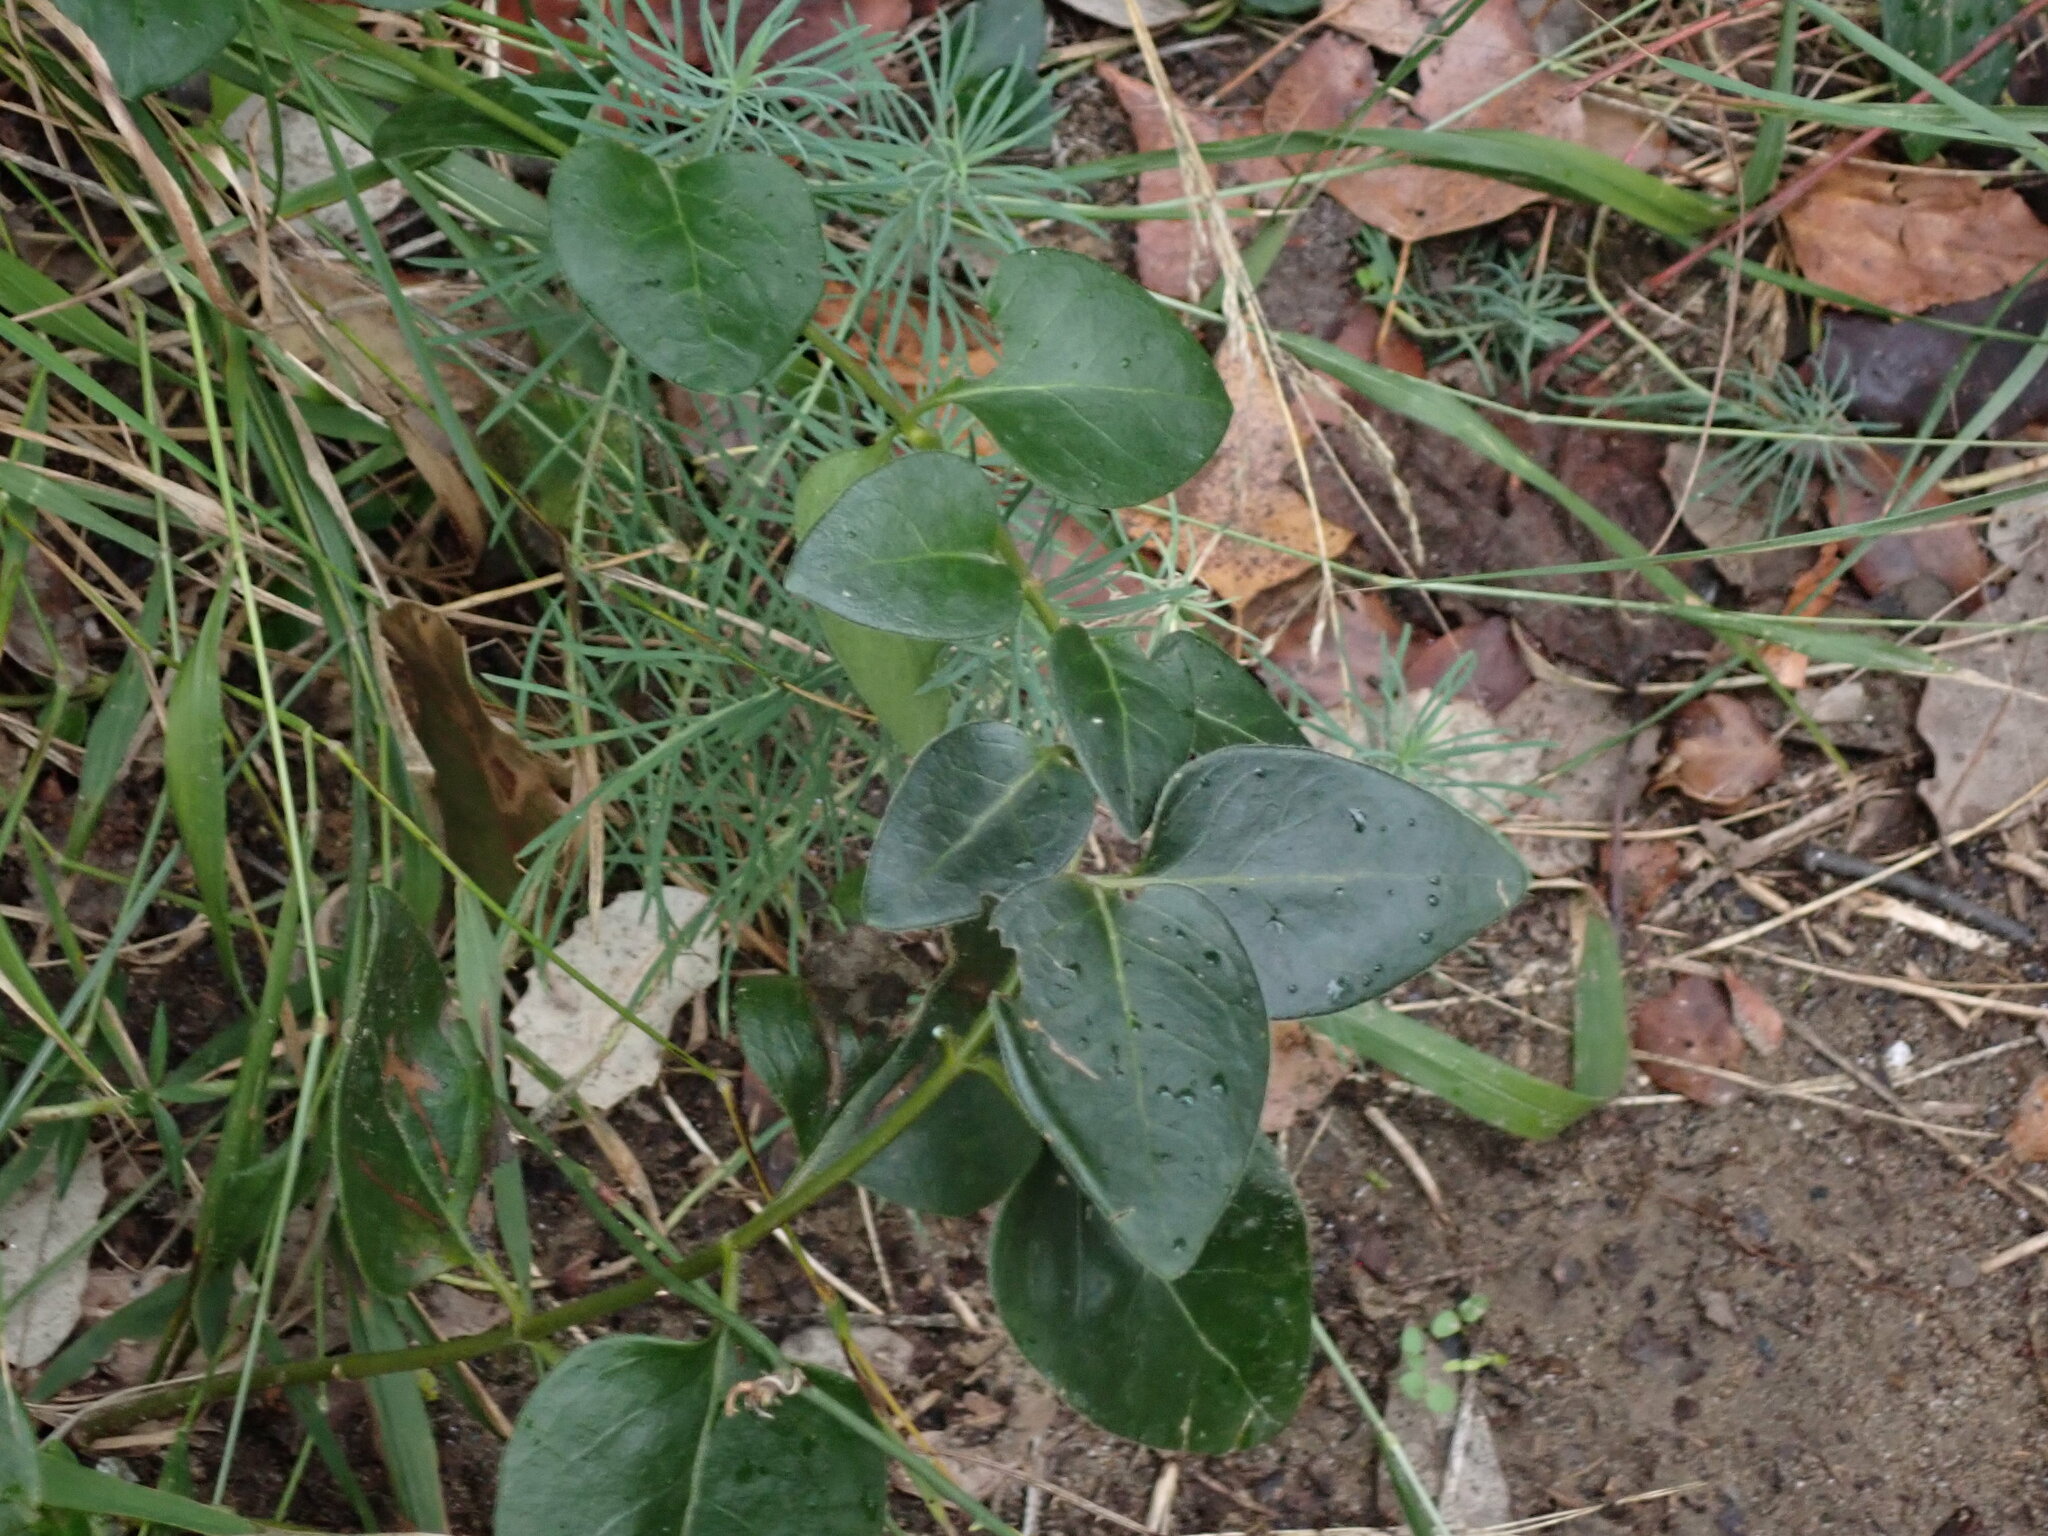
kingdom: Plantae
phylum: Tracheophyta
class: Magnoliopsida
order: Gentianales
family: Apocynaceae
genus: Vinca
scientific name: Vinca major
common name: Greater periwinkle
